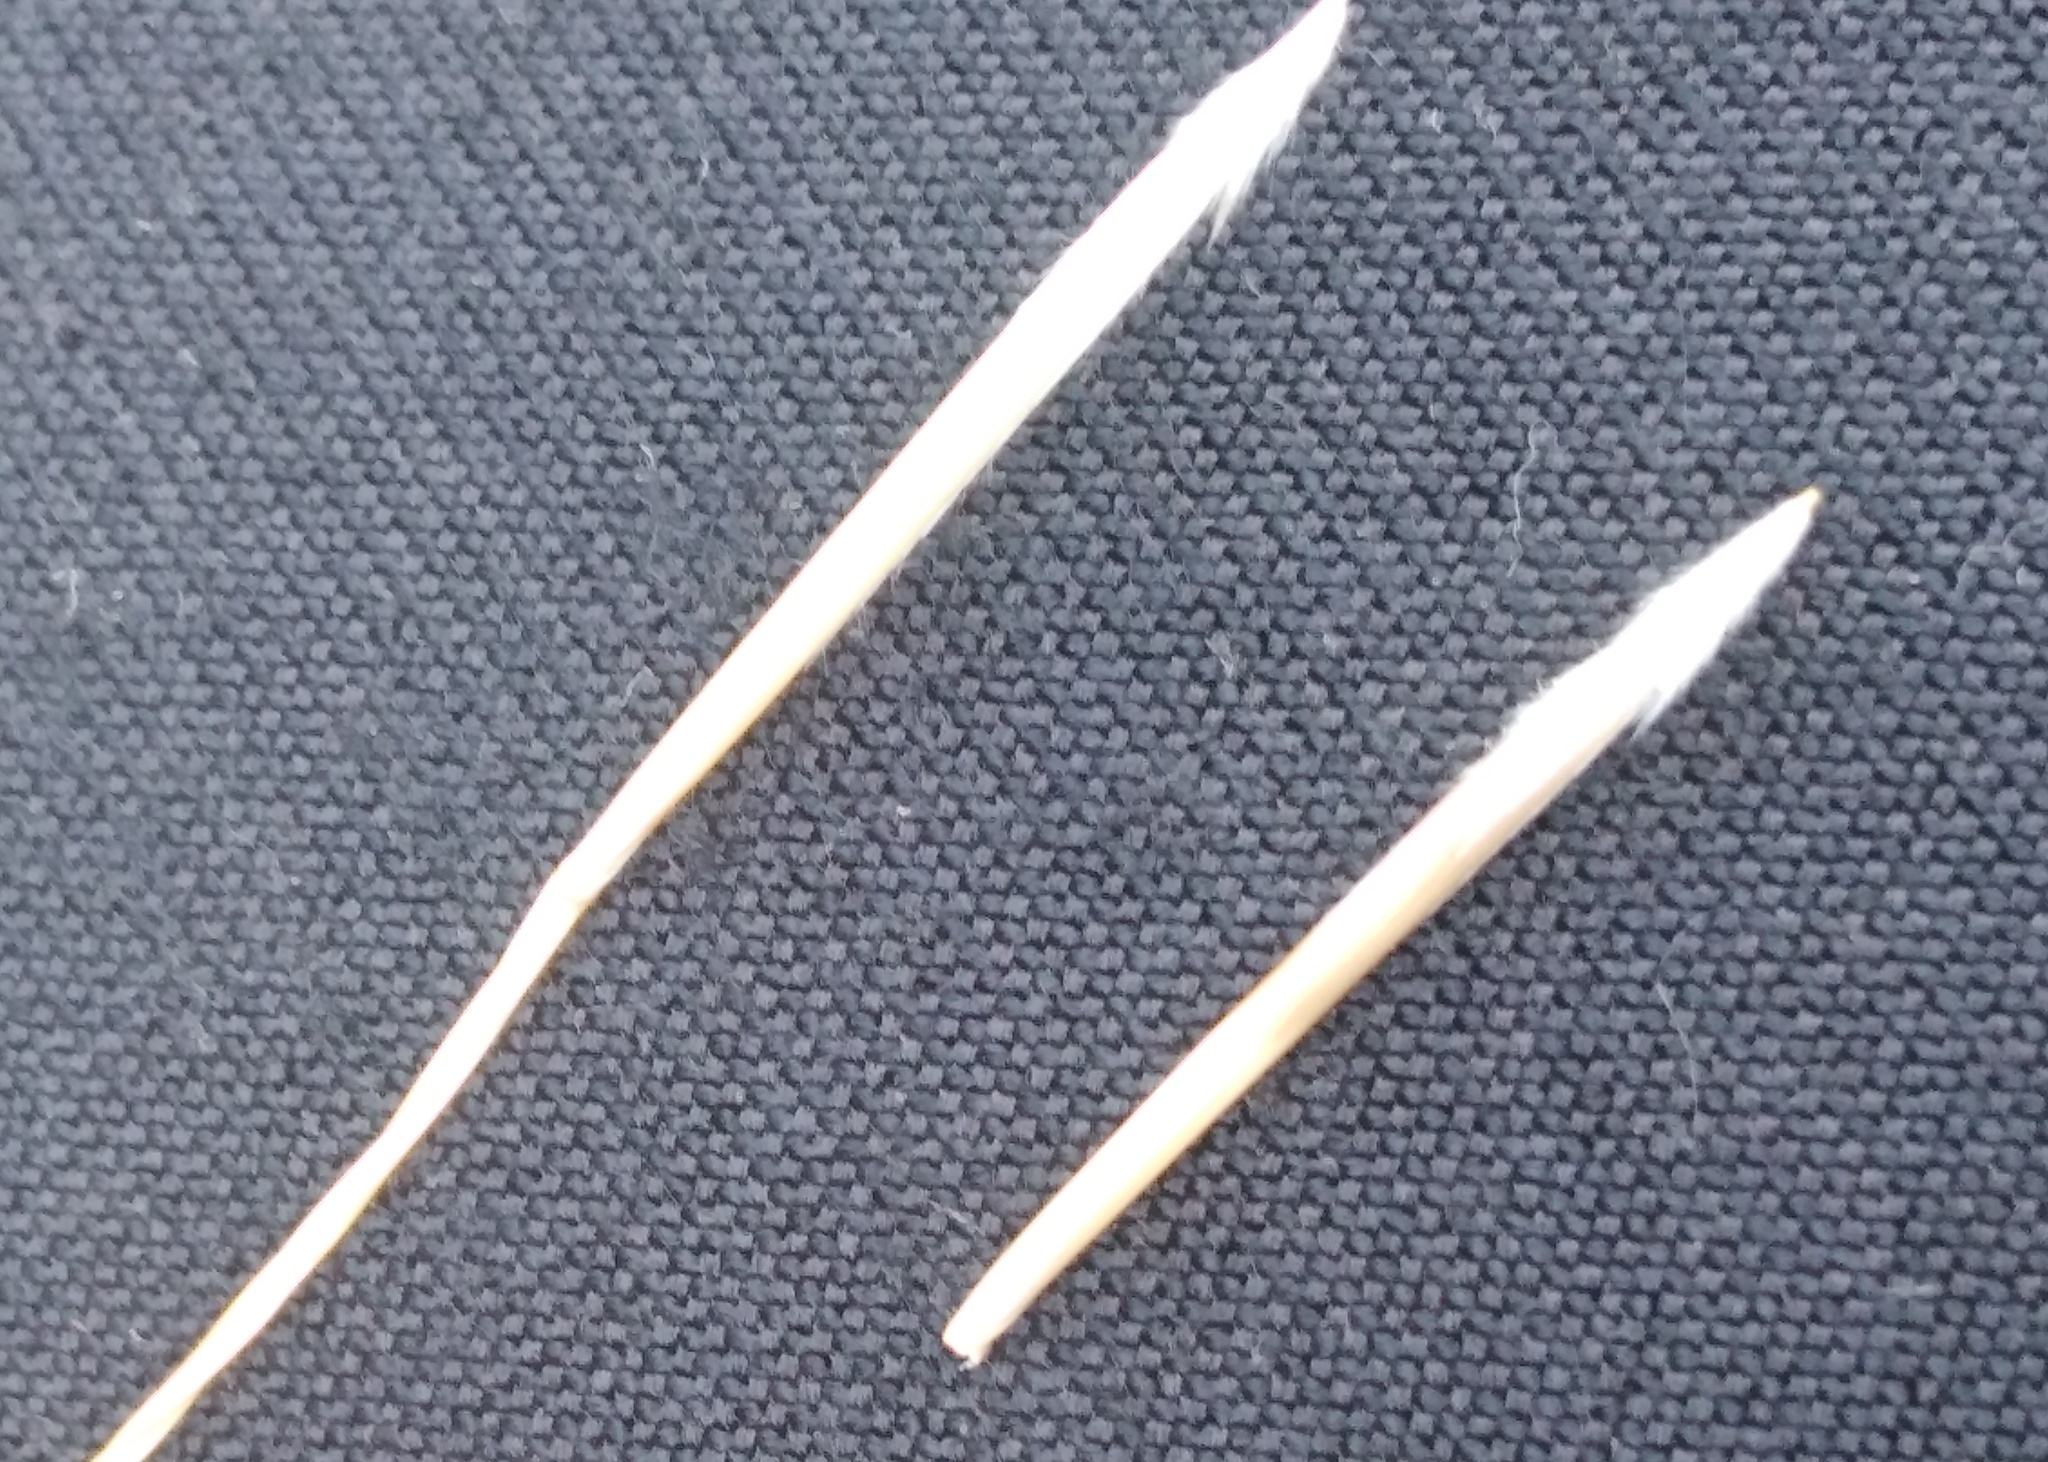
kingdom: Plantae
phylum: Tracheophyta
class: Liliopsida
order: Poales
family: Poaceae
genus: Stipa
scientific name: Stipa pennata
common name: European feather grass
